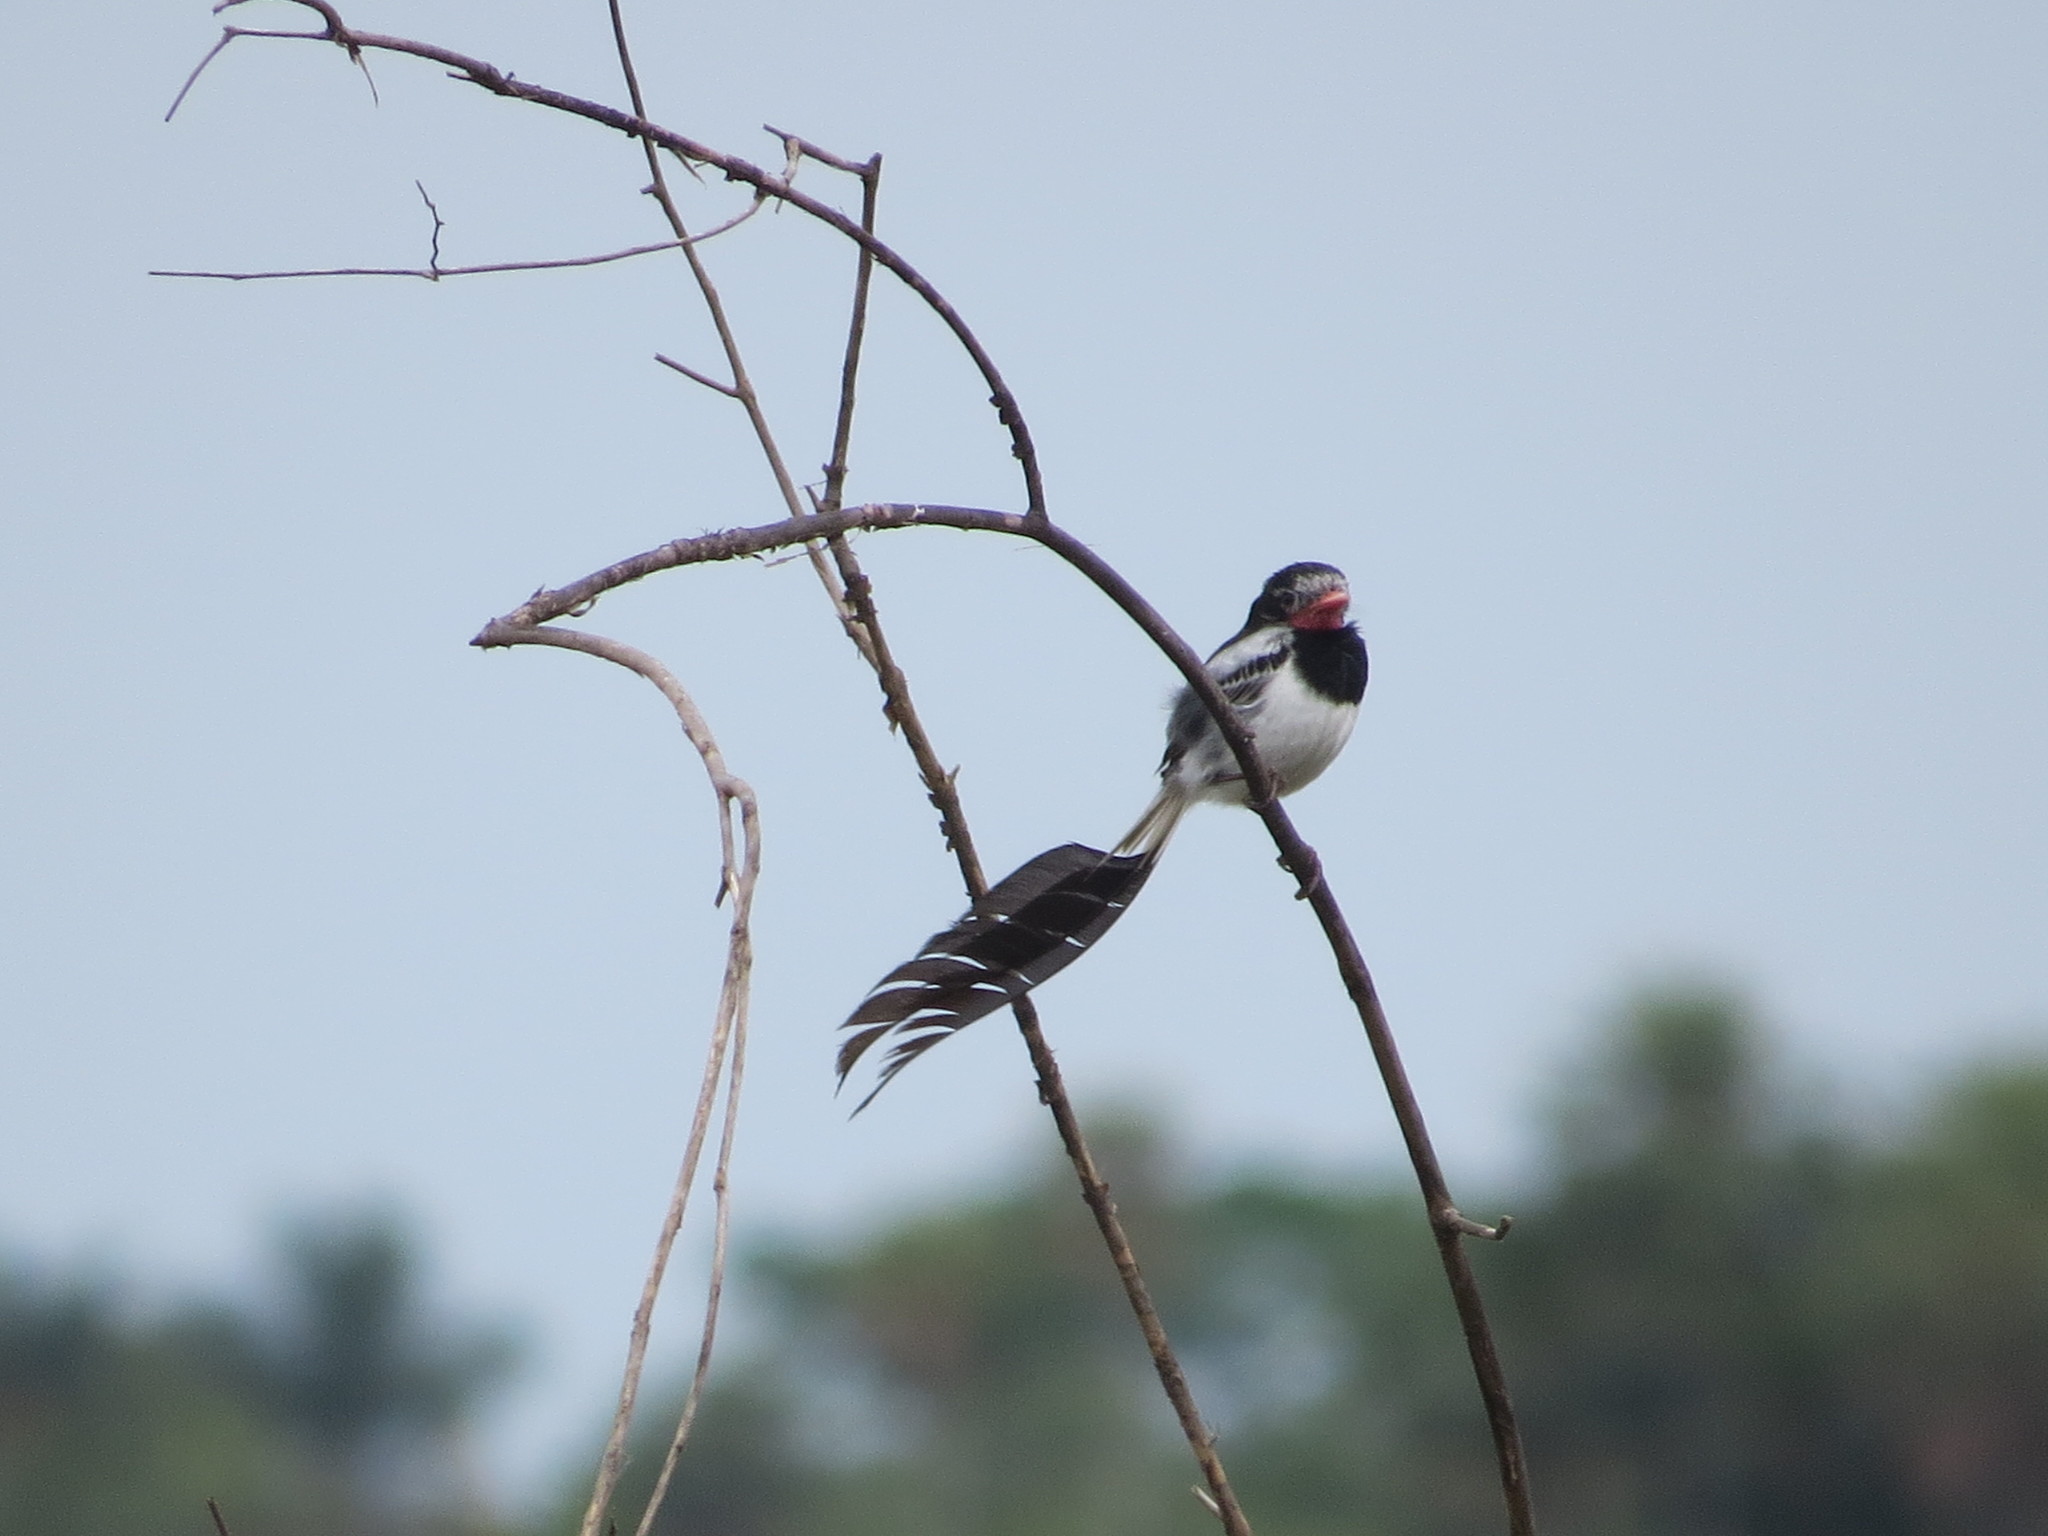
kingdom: Animalia
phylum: Chordata
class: Aves
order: Passeriformes
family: Tyrannidae
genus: Alectrurus
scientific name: Alectrurus risora
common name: Strange-tailed tyrant
